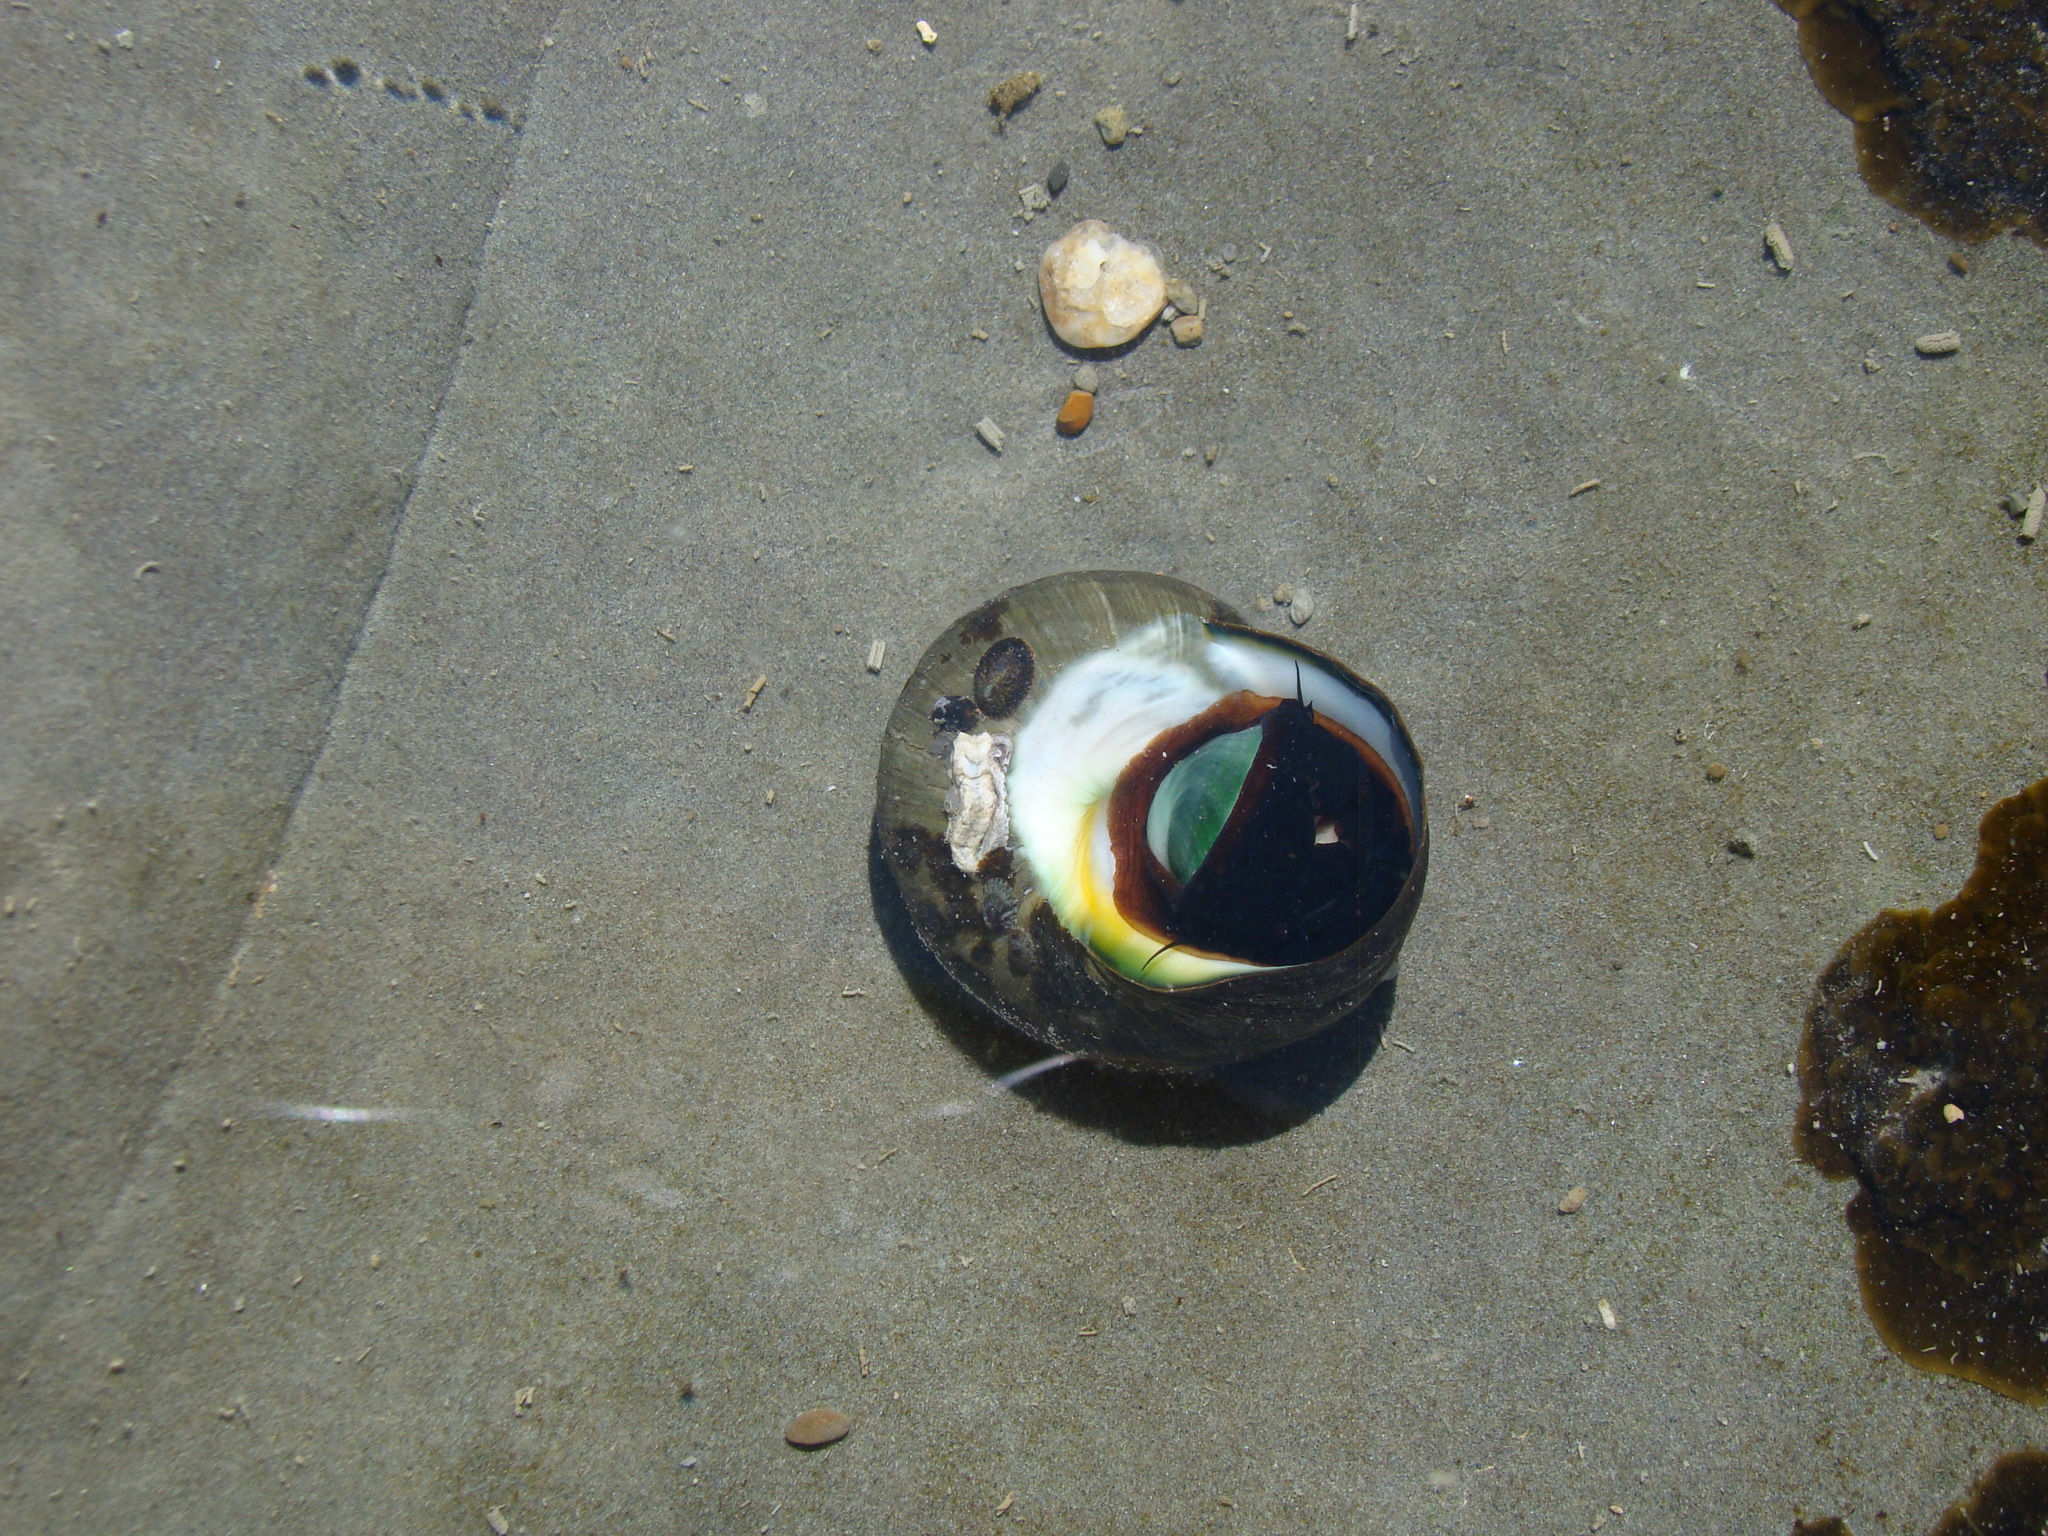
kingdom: Animalia
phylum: Mollusca
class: Gastropoda
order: Trochida
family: Turbinidae
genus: Lunella
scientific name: Lunella smaragda
